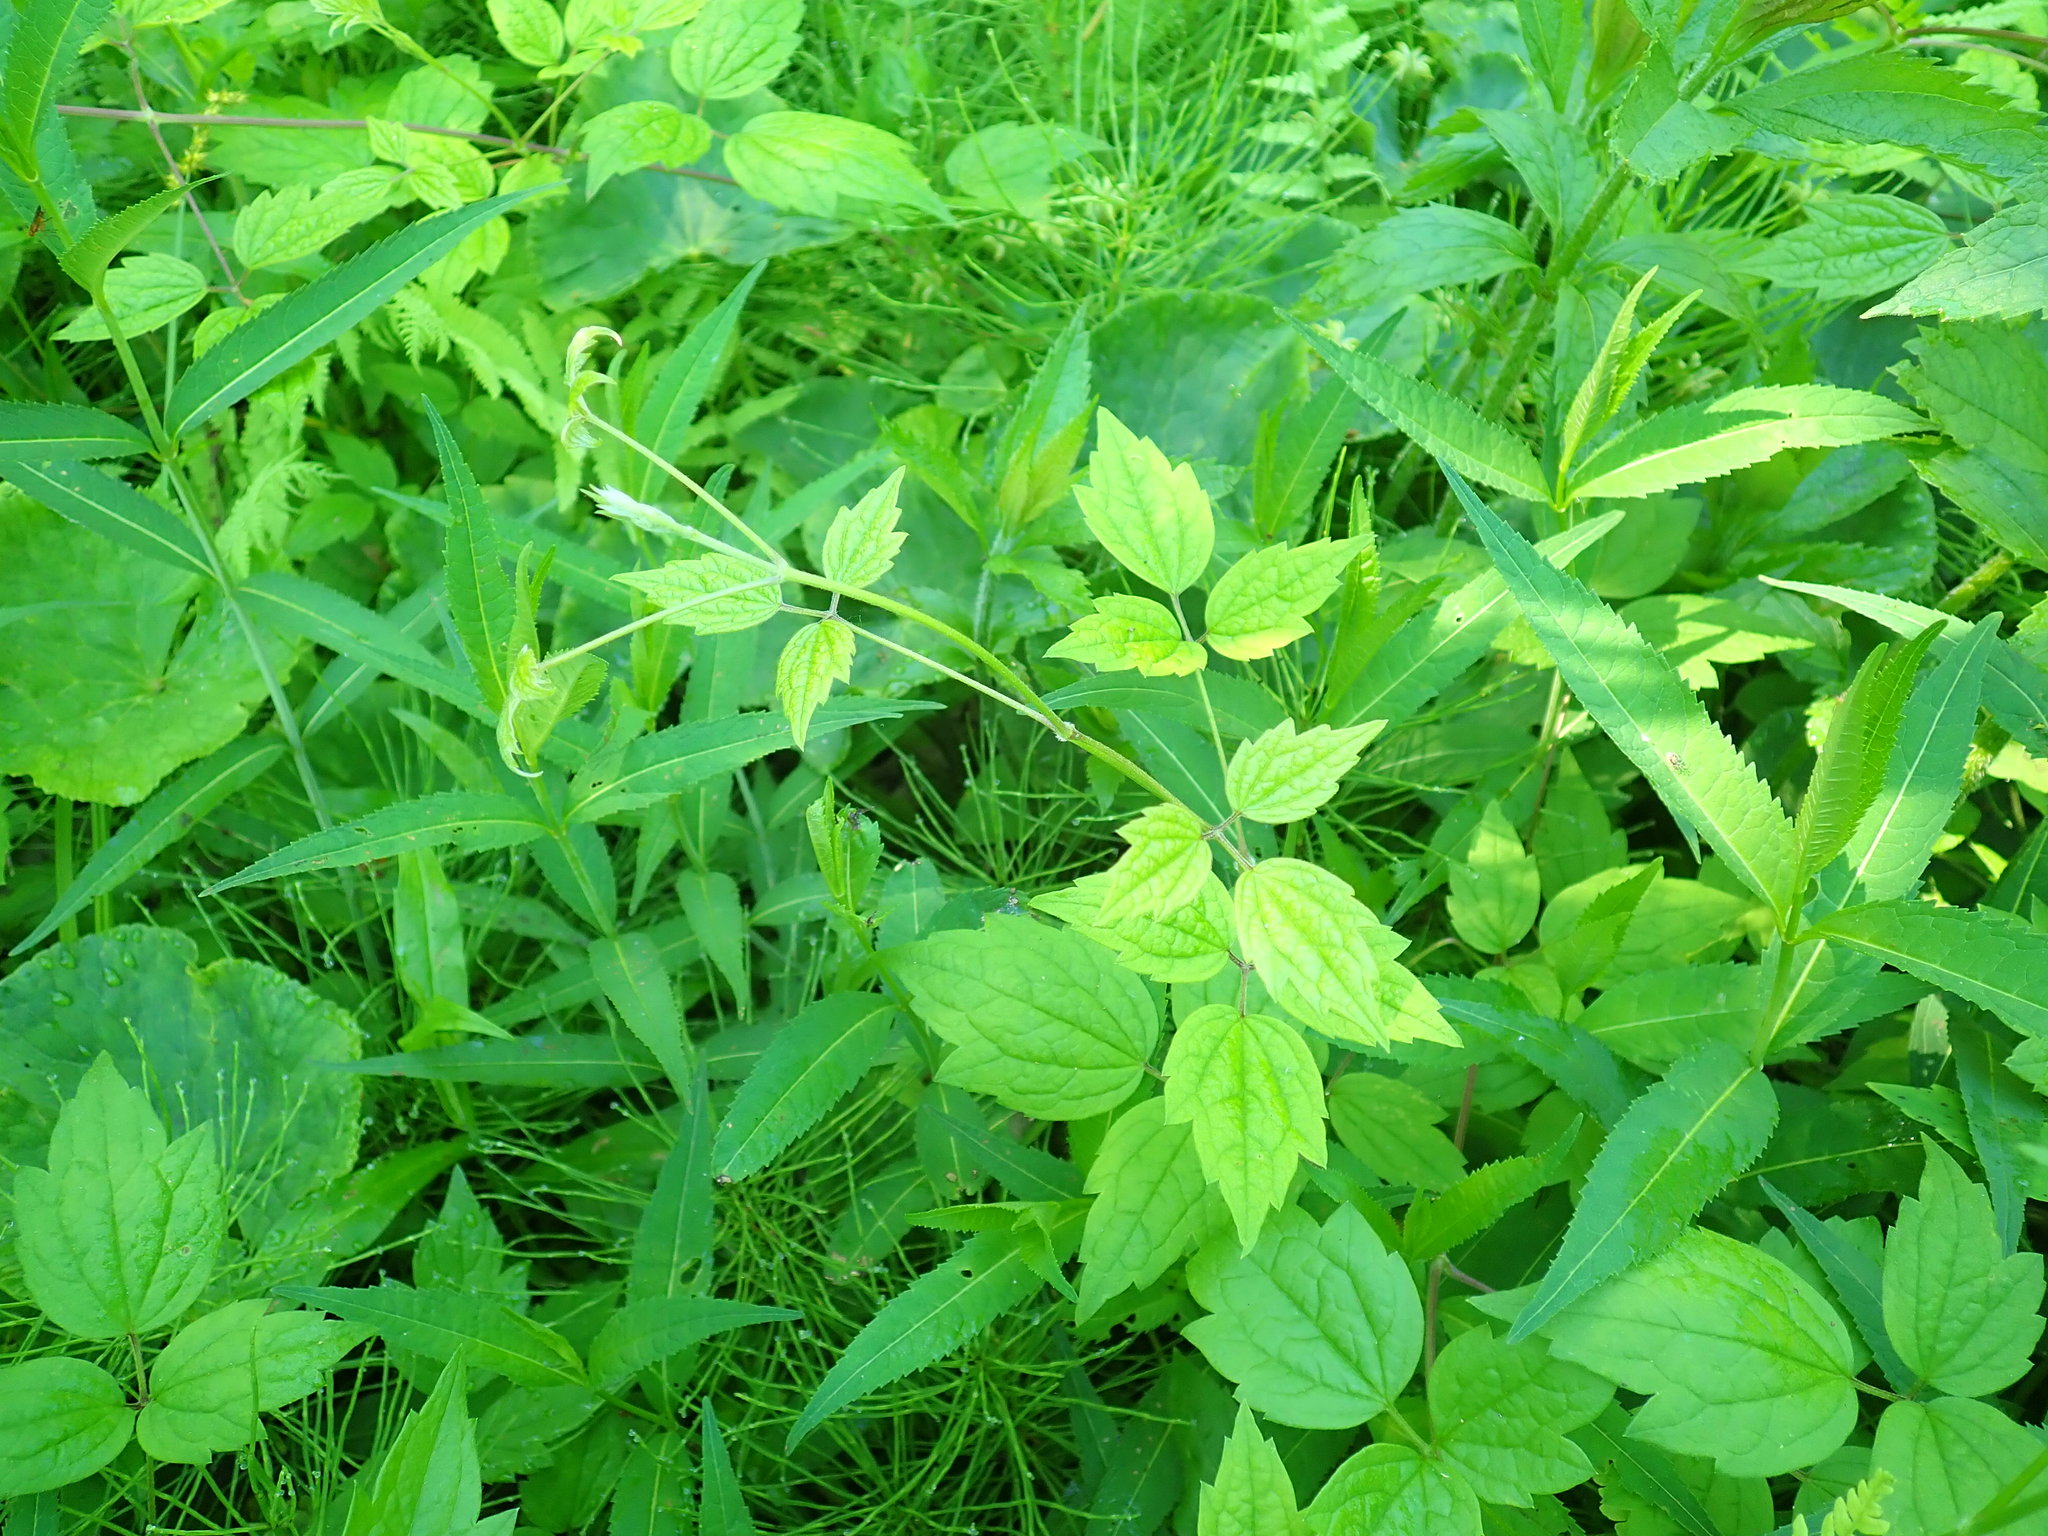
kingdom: Plantae
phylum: Tracheophyta
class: Magnoliopsida
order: Ranunculales
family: Ranunculaceae
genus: Clematis
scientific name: Clematis virginiana
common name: Virgin's-bower
